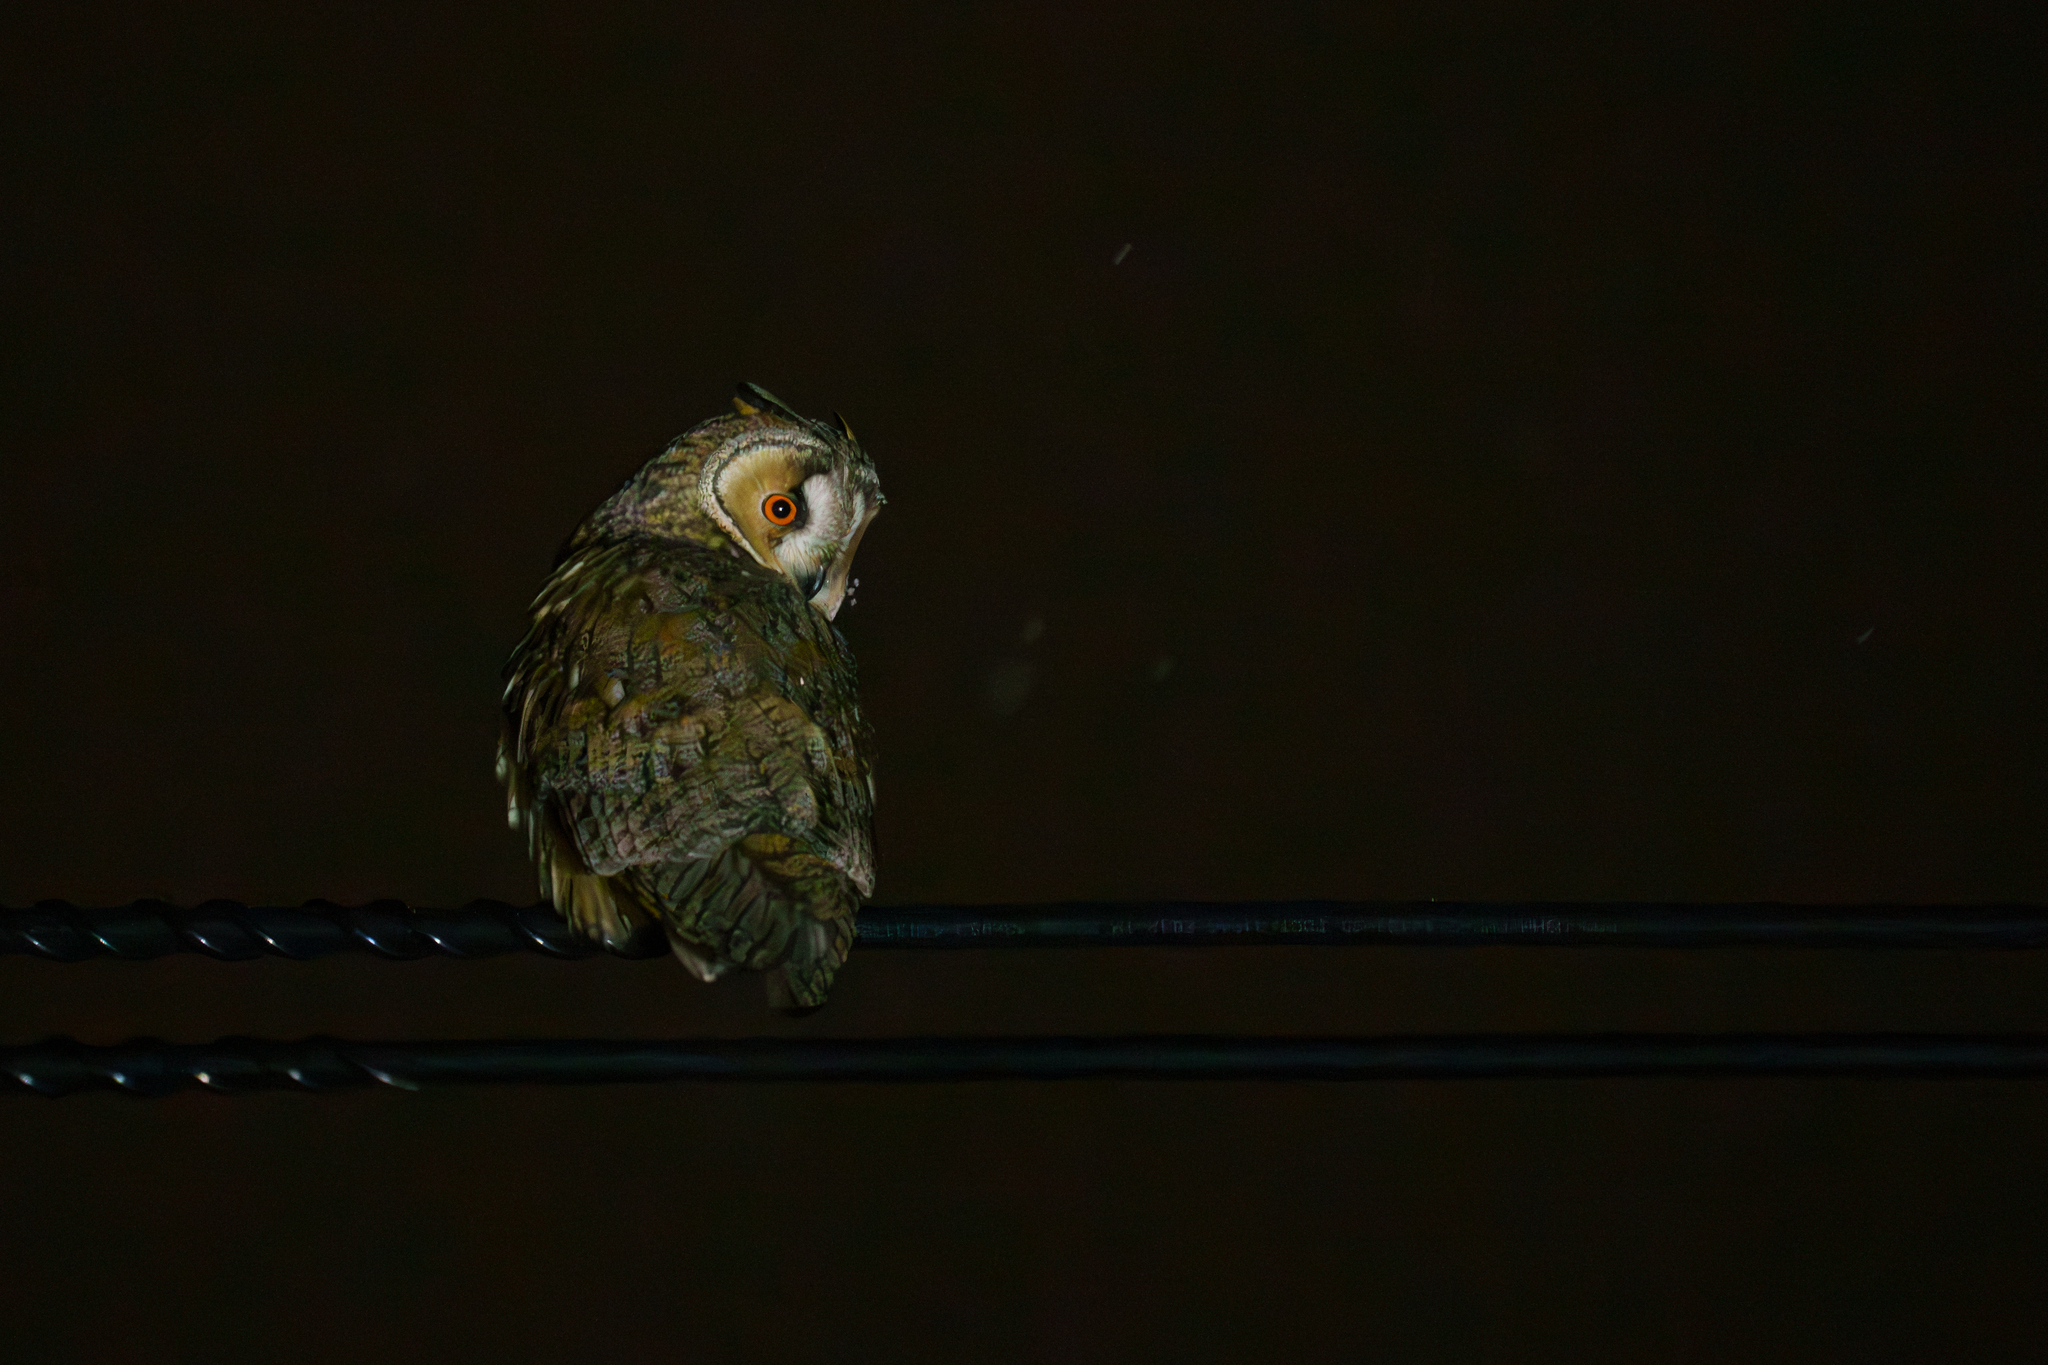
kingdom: Animalia
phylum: Chordata
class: Aves
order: Strigiformes
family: Strigidae
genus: Asio
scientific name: Asio otus
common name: Long-eared owl
